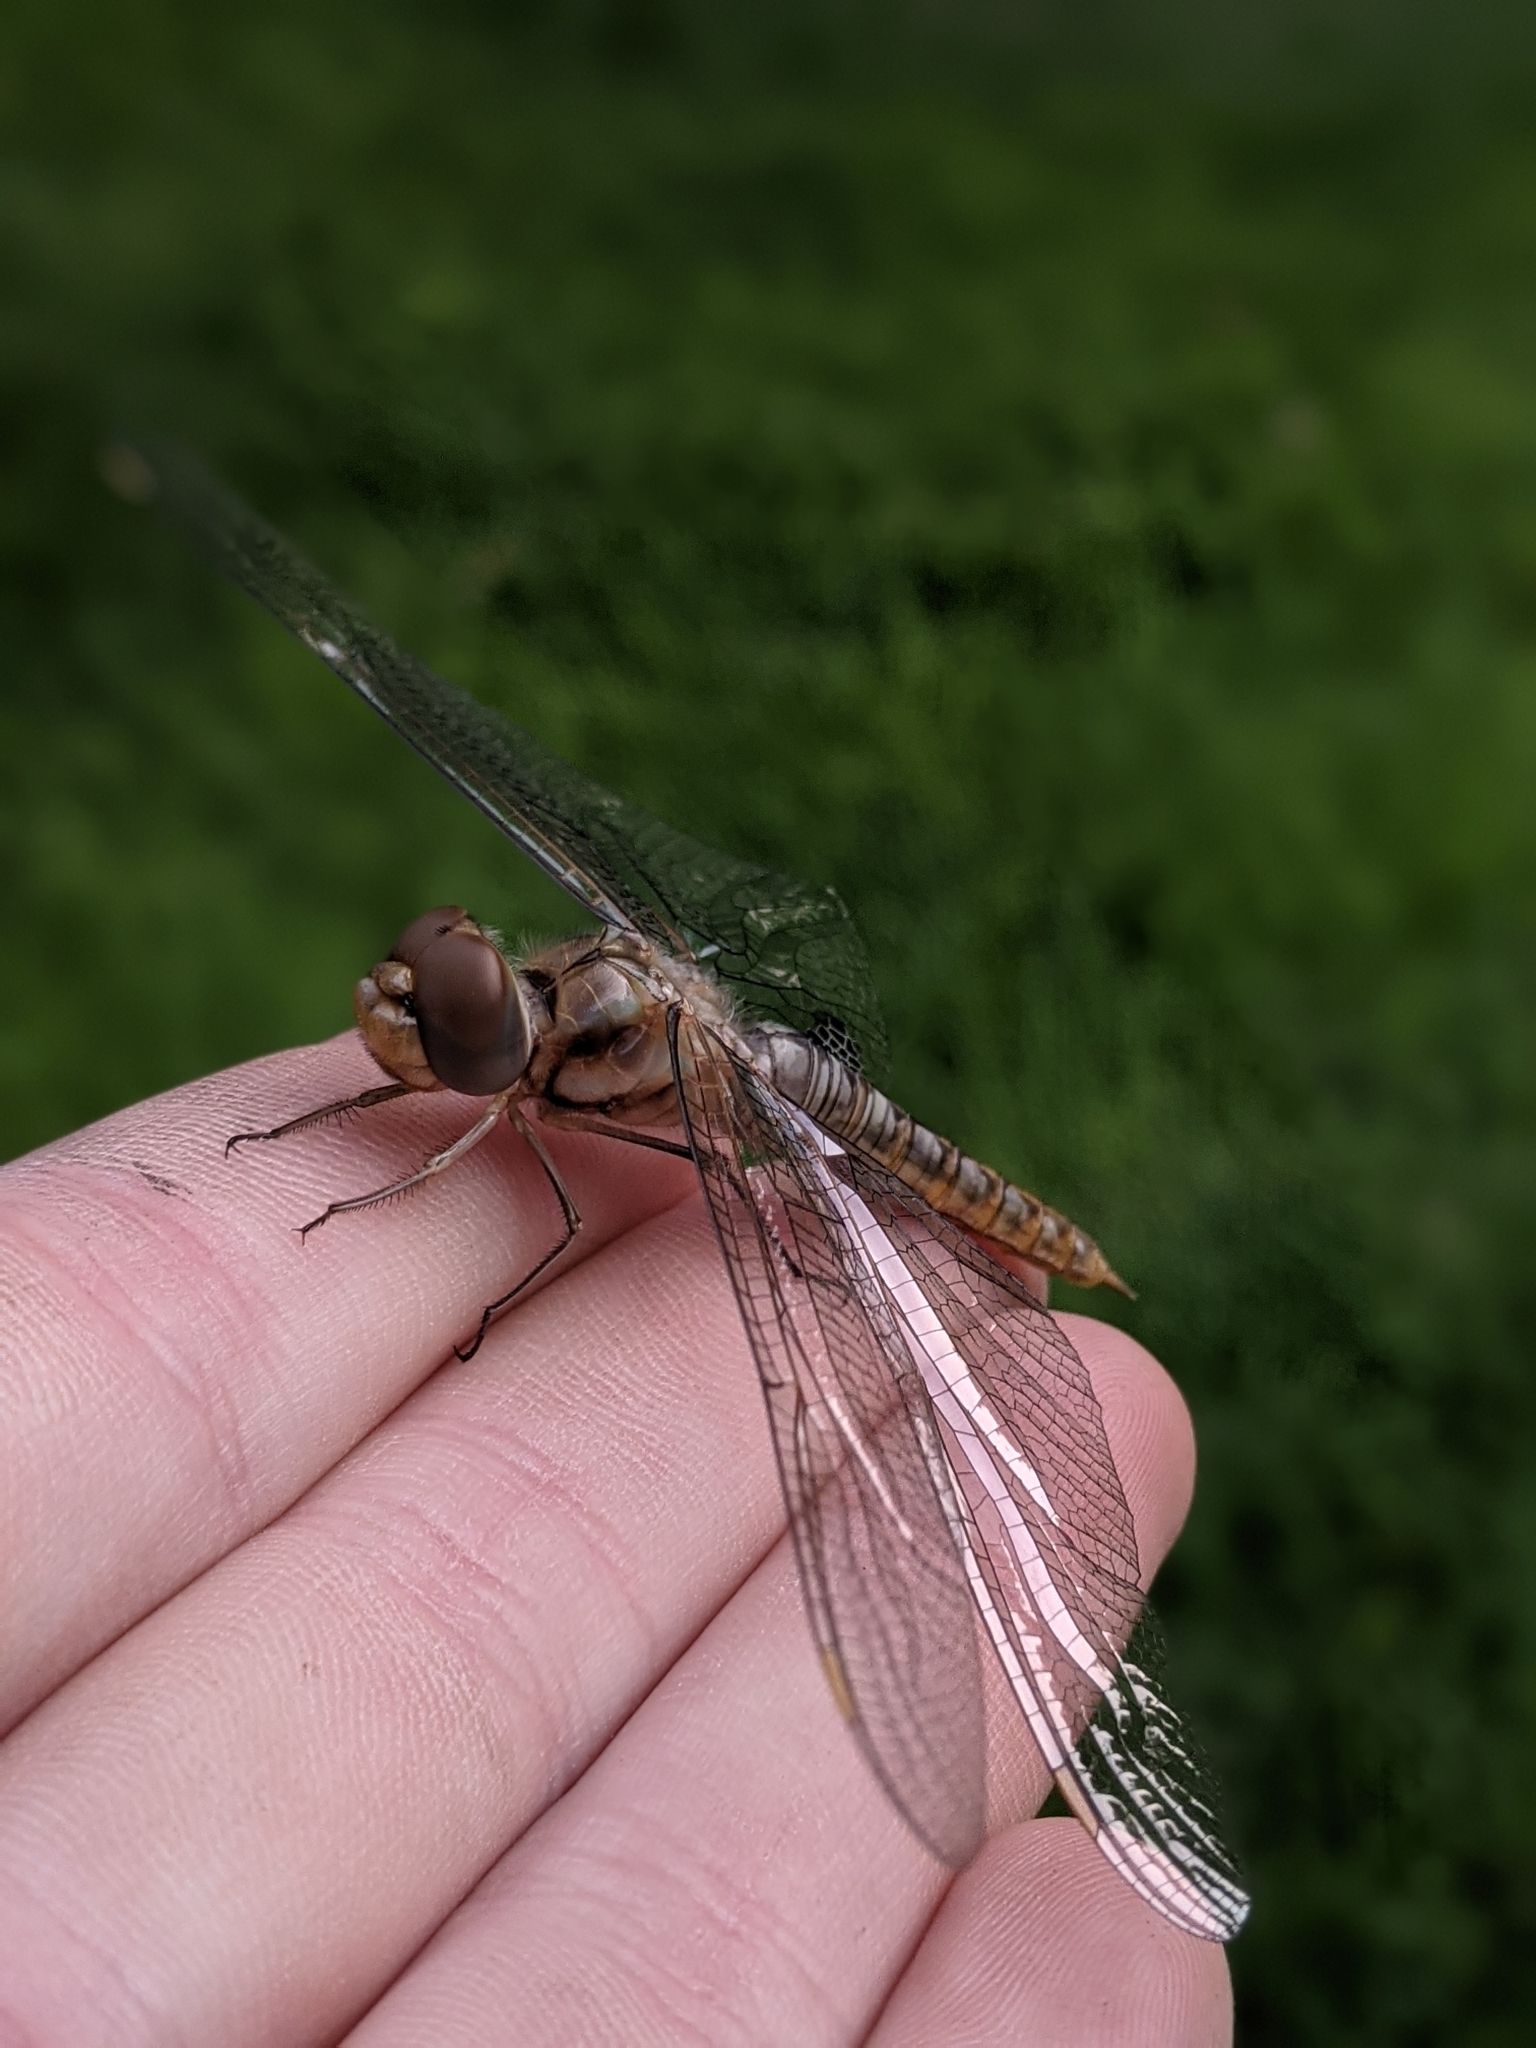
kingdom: Animalia
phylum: Arthropoda
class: Insecta
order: Odonata
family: Libellulidae
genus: Pantala
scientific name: Pantala hymenaea
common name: Spot-winged glider
